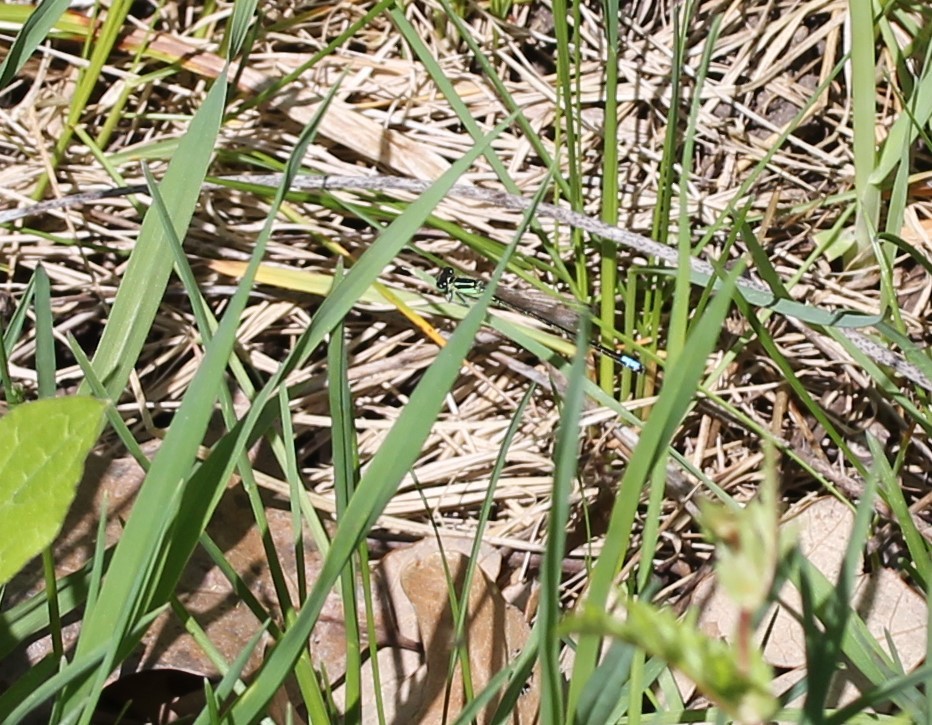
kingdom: Animalia
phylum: Arthropoda
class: Insecta
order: Odonata
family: Coenagrionidae
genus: Ischnura
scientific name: Ischnura verticalis
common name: Eastern forktail
